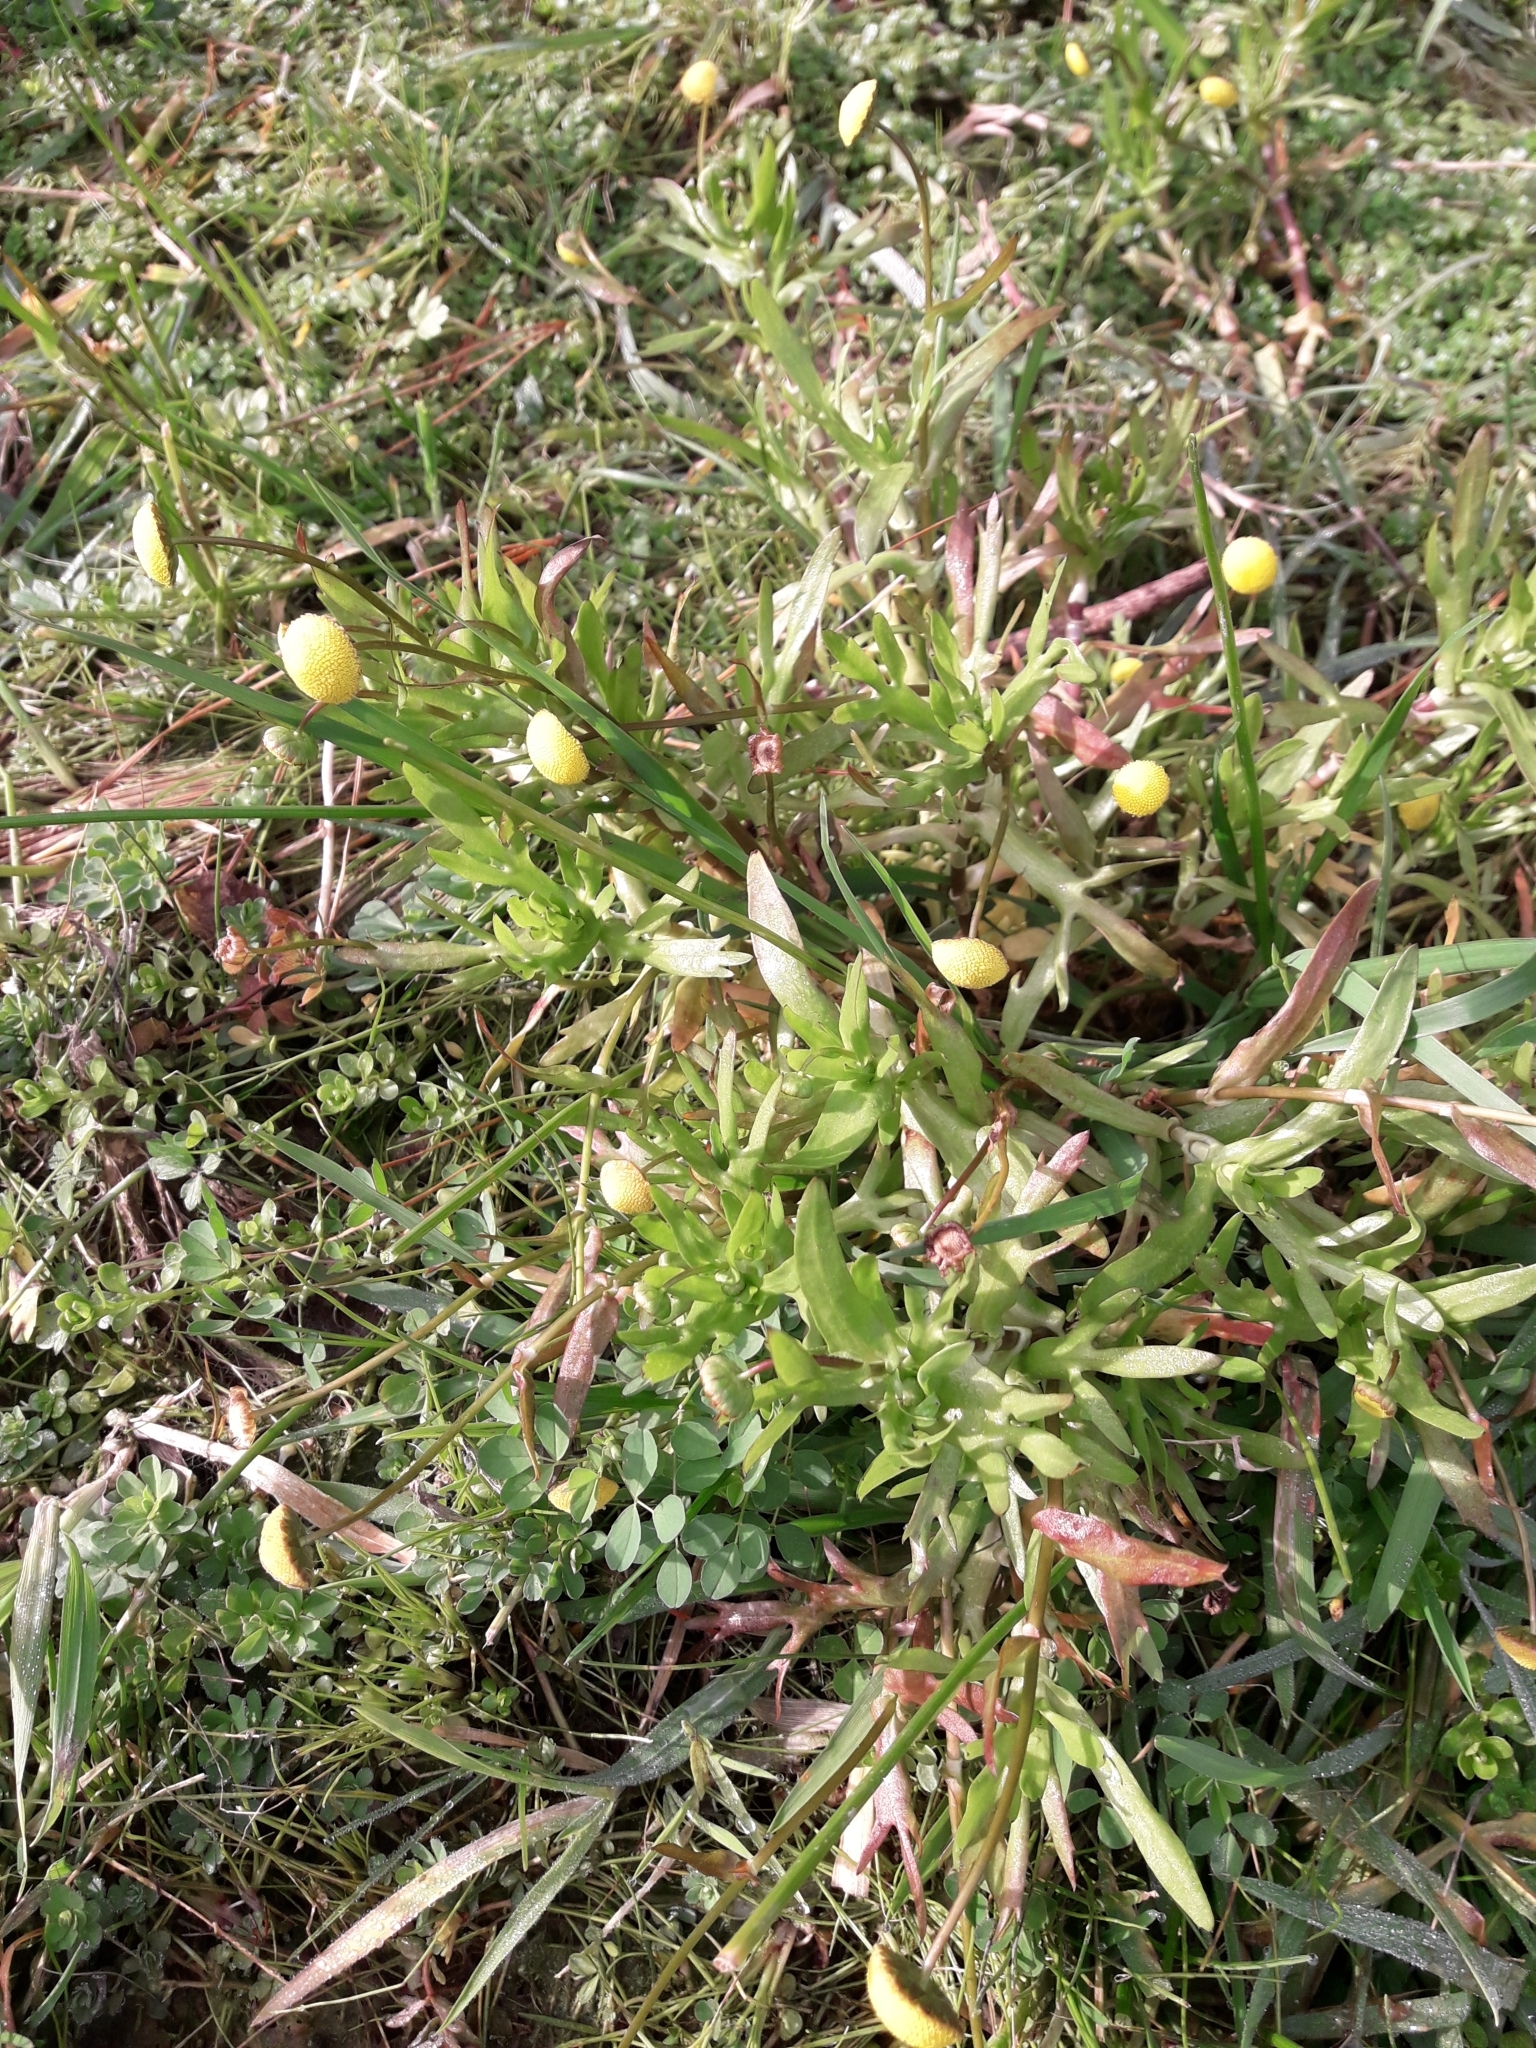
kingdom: Plantae
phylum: Tracheophyta
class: Magnoliopsida
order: Asterales
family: Asteraceae
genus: Cotula
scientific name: Cotula coronopifolia
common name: Buttonweed
